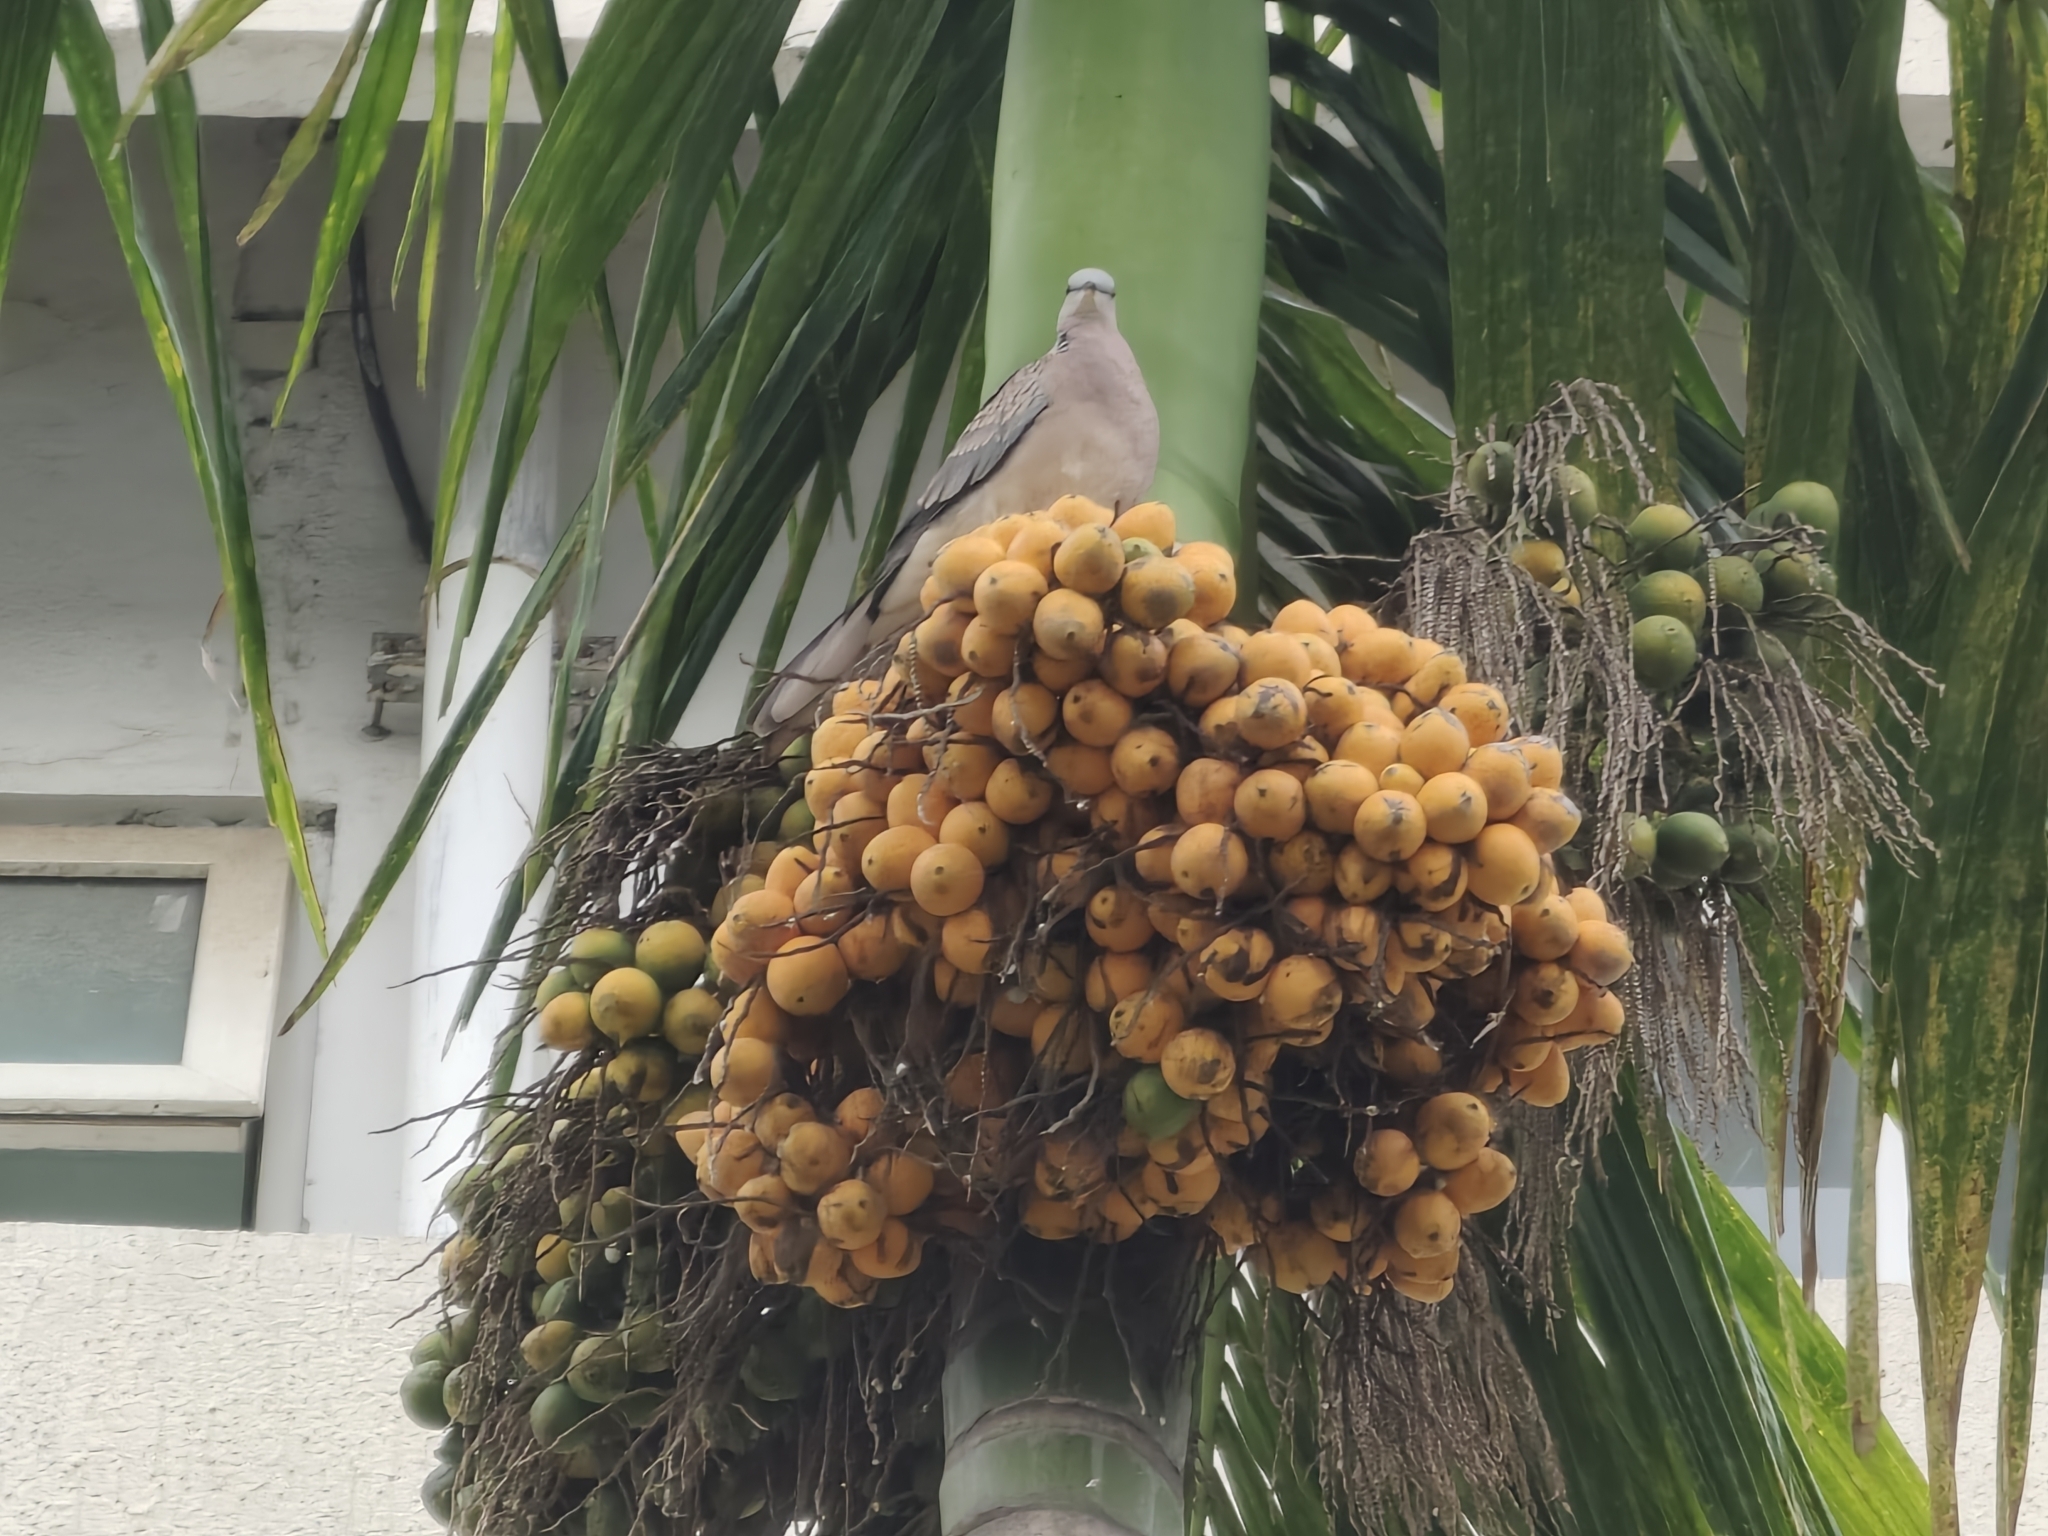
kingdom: Animalia
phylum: Chordata
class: Aves
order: Columbiformes
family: Columbidae
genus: Spilopelia
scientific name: Spilopelia chinensis
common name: Spotted dove
